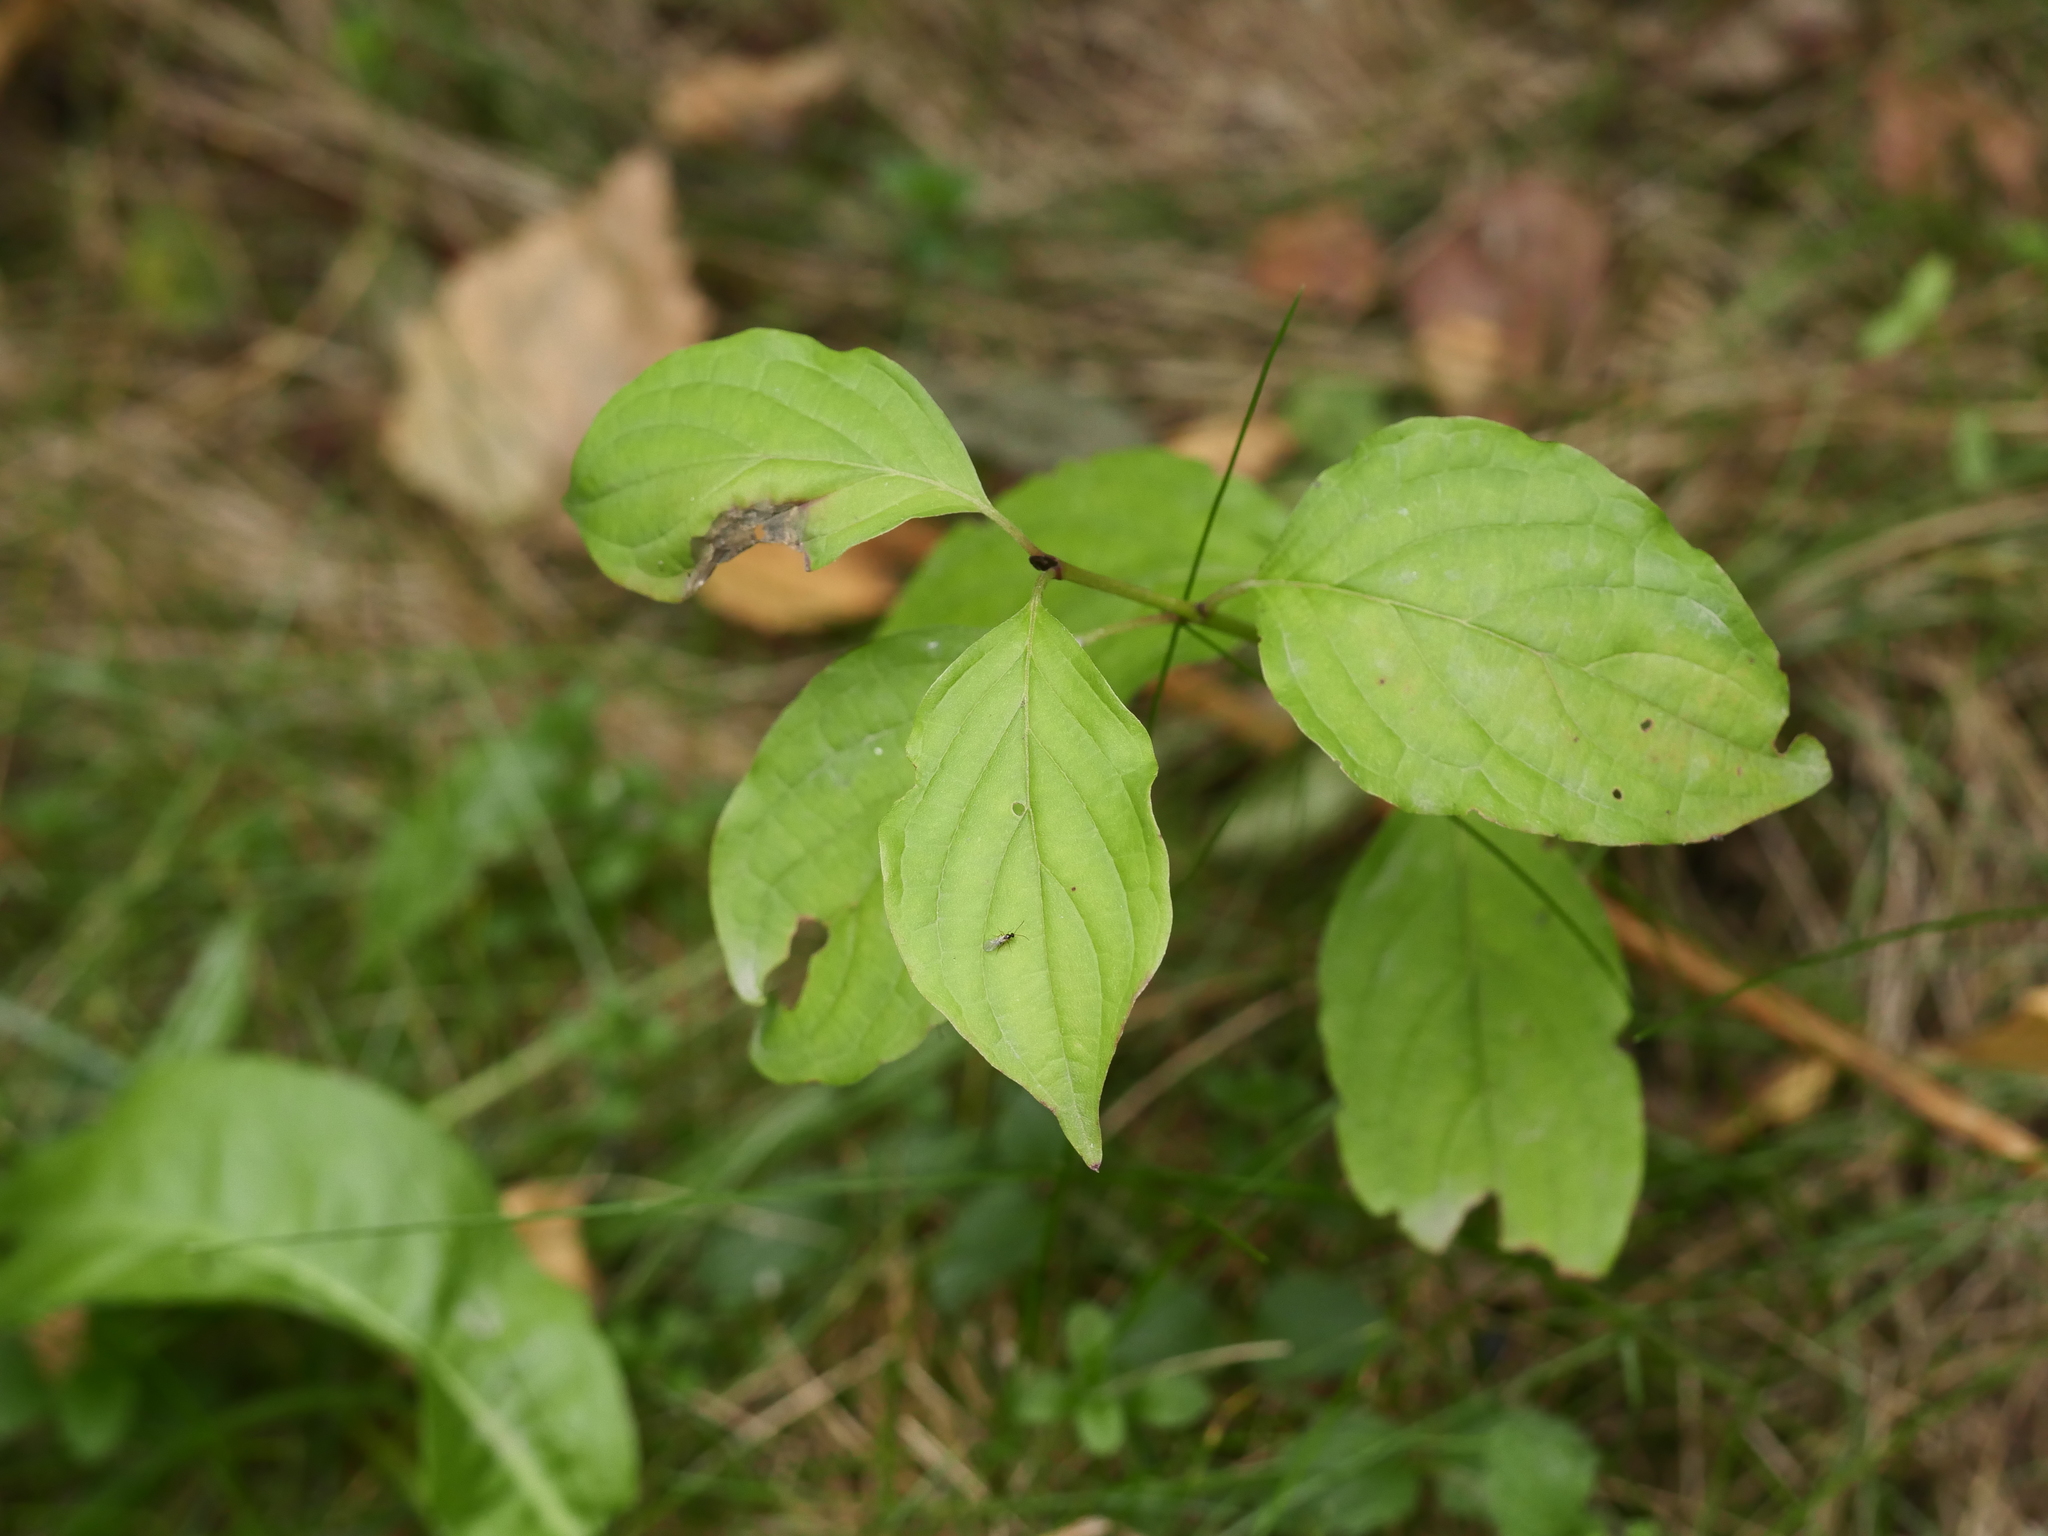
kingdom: Plantae
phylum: Tracheophyta
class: Magnoliopsida
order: Cornales
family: Cornaceae
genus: Cornus
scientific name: Cornus sanguinea
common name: Dogwood
